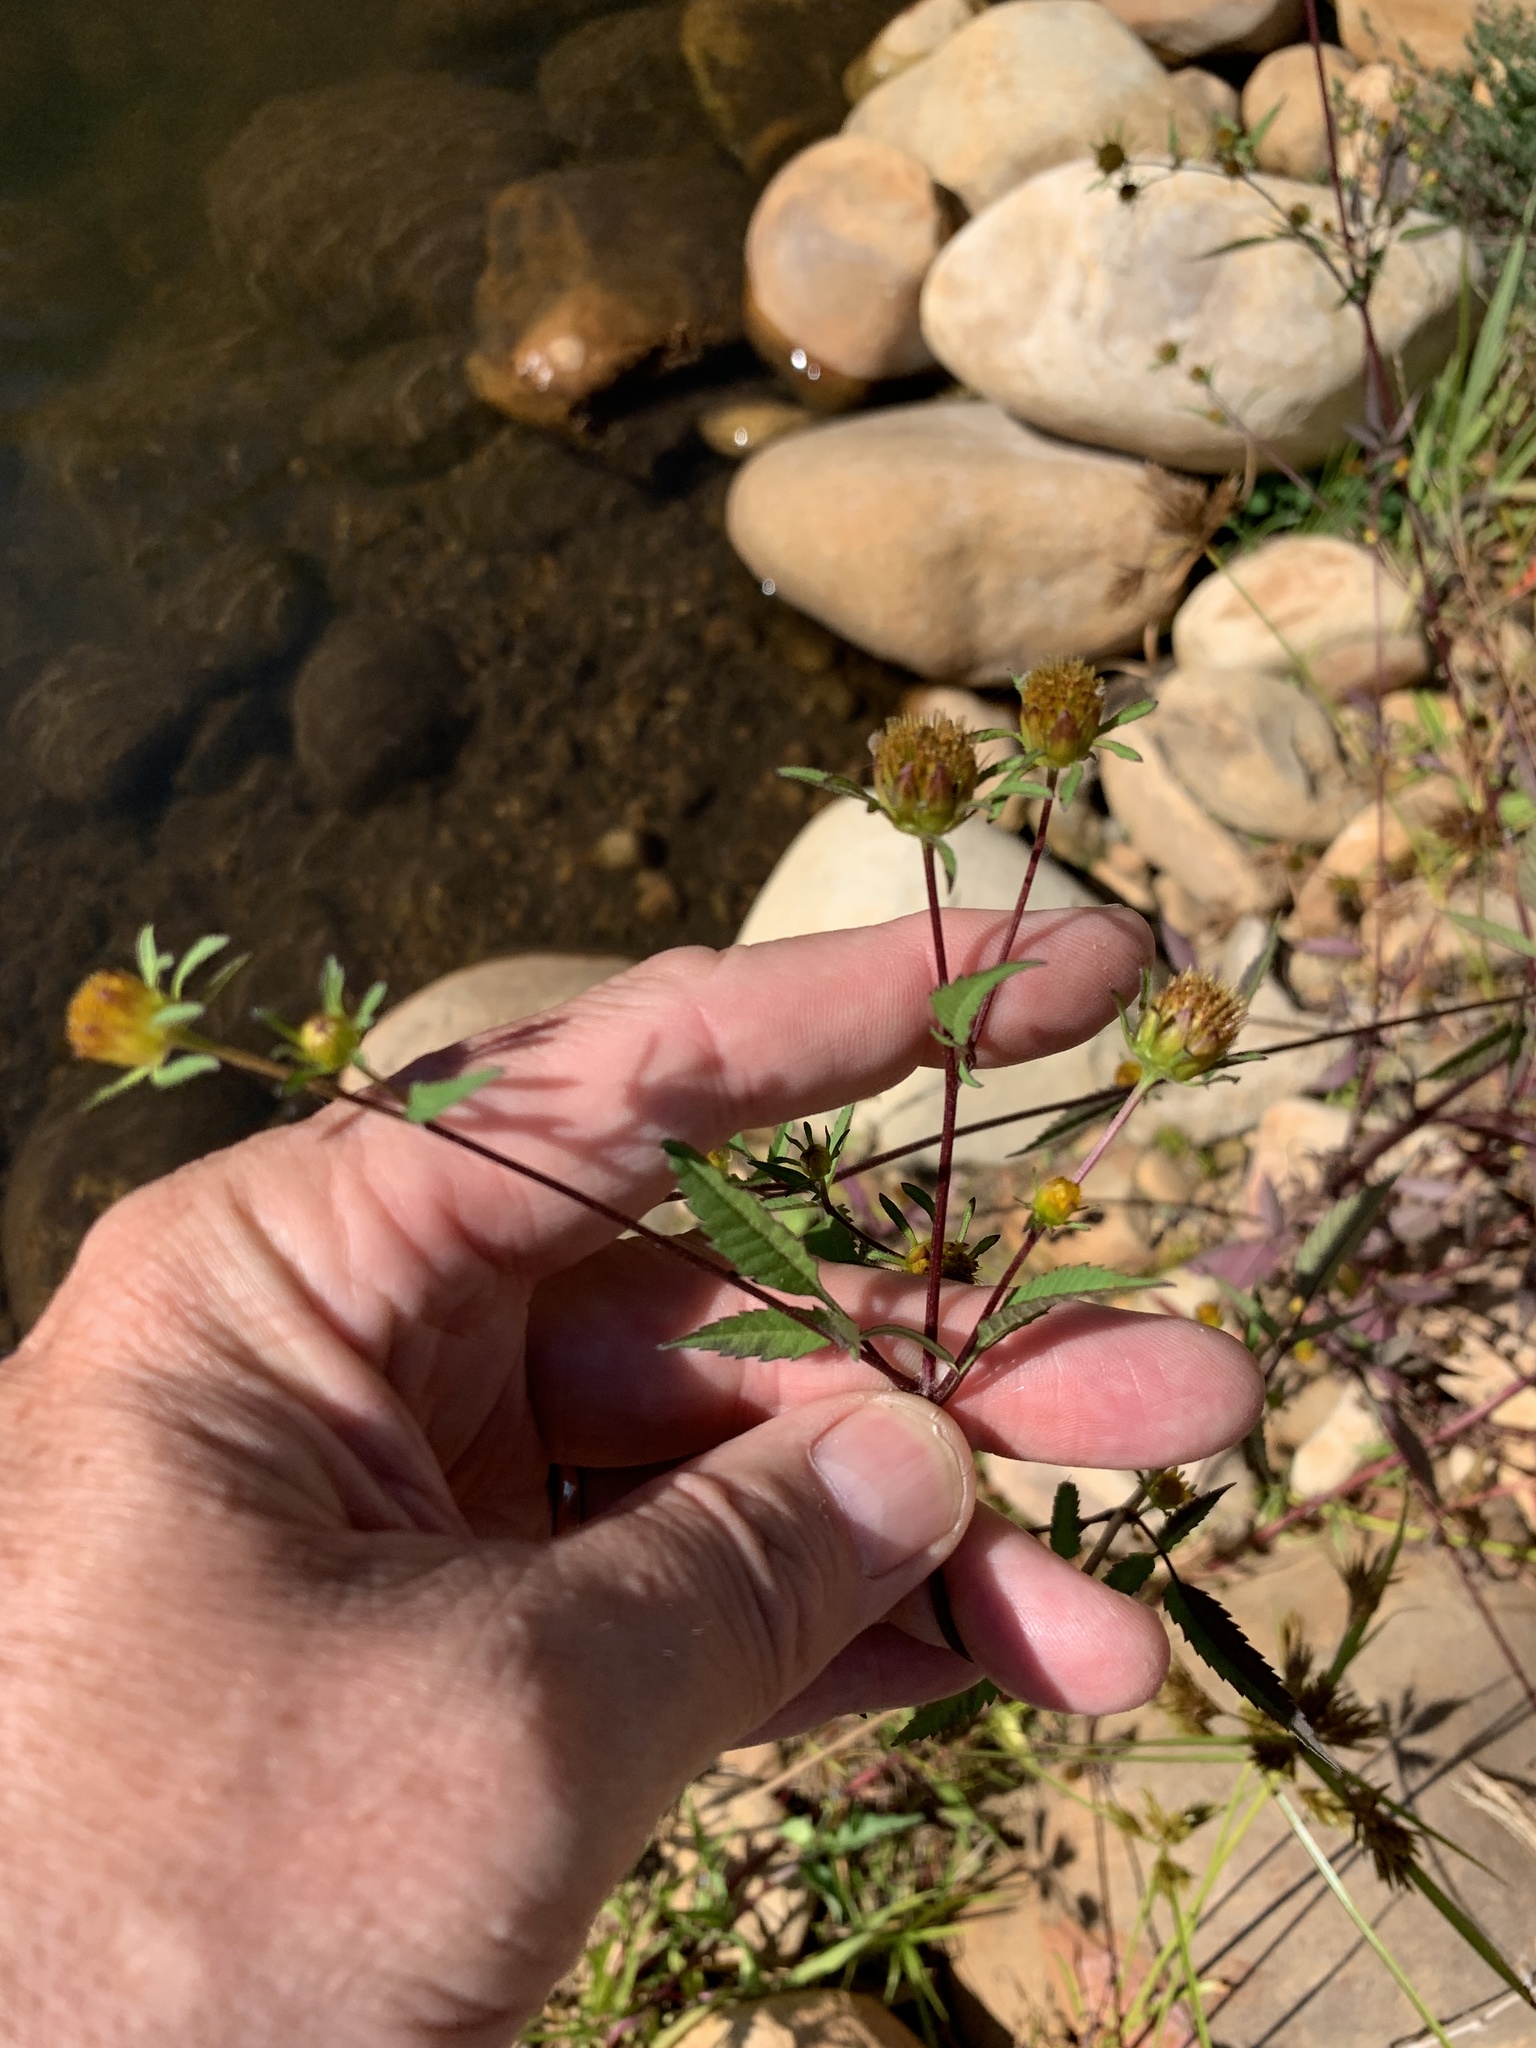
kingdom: Plantae
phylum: Tracheophyta
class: Magnoliopsida
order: Asterales
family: Asteraceae
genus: Bidens
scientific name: Bidens frondosa
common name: Beggarticks
